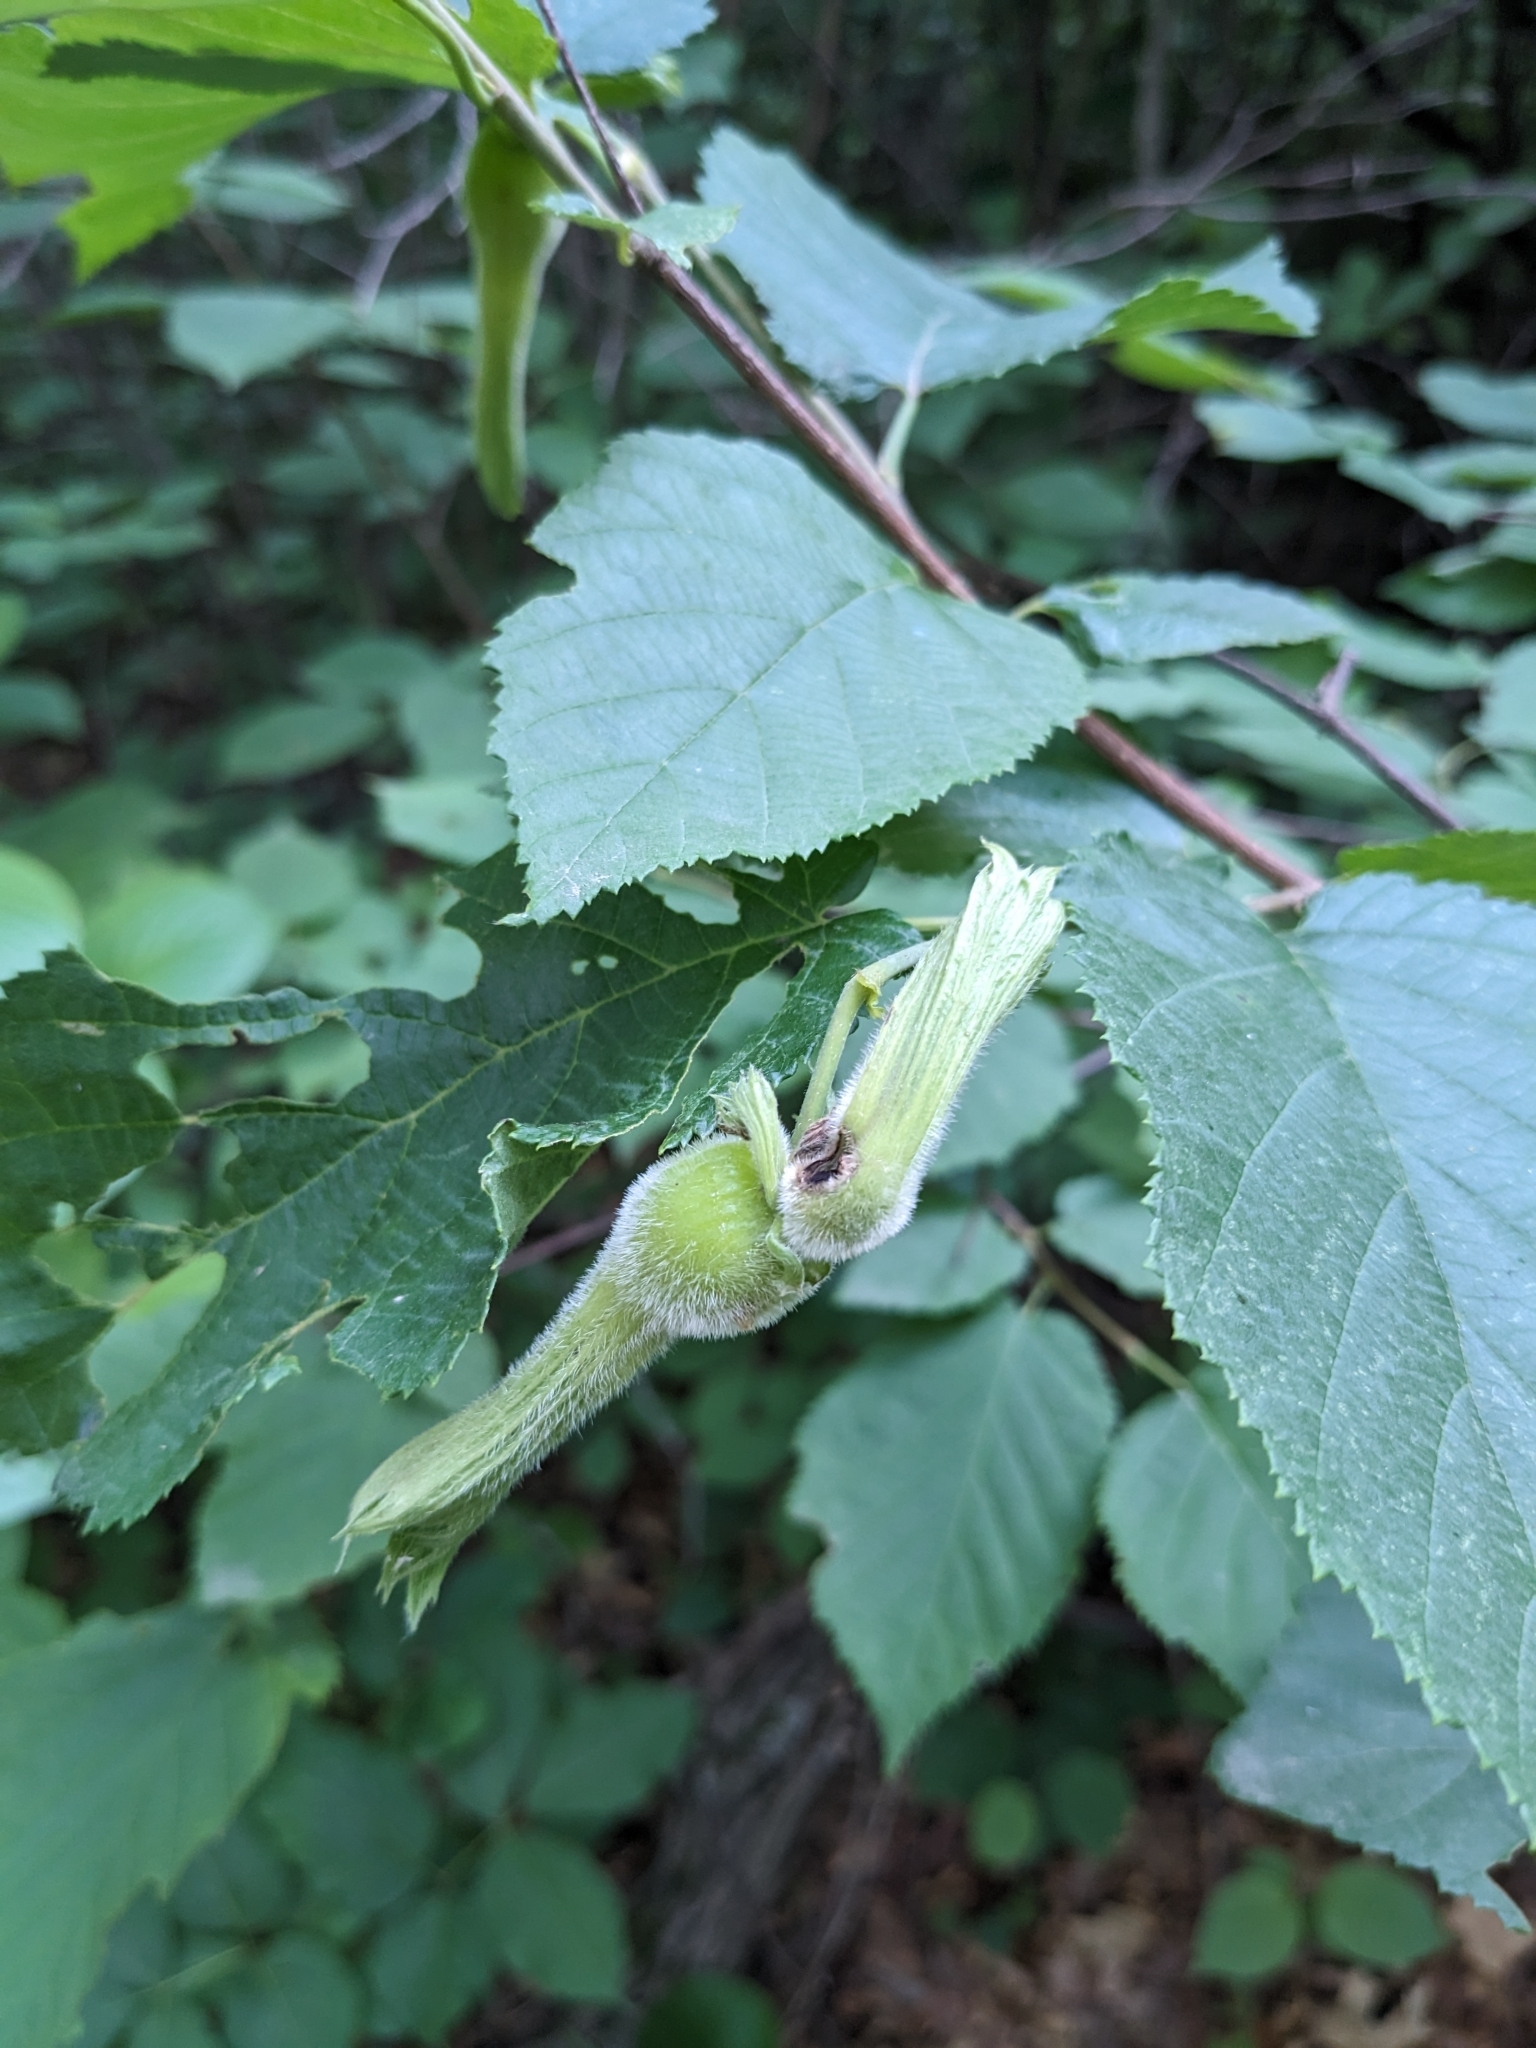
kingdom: Plantae
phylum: Tracheophyta
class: Magnoliopsida
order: Fagales
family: Betulaceae
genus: Corylus
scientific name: Corylus cornuta
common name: Beaked hazel
